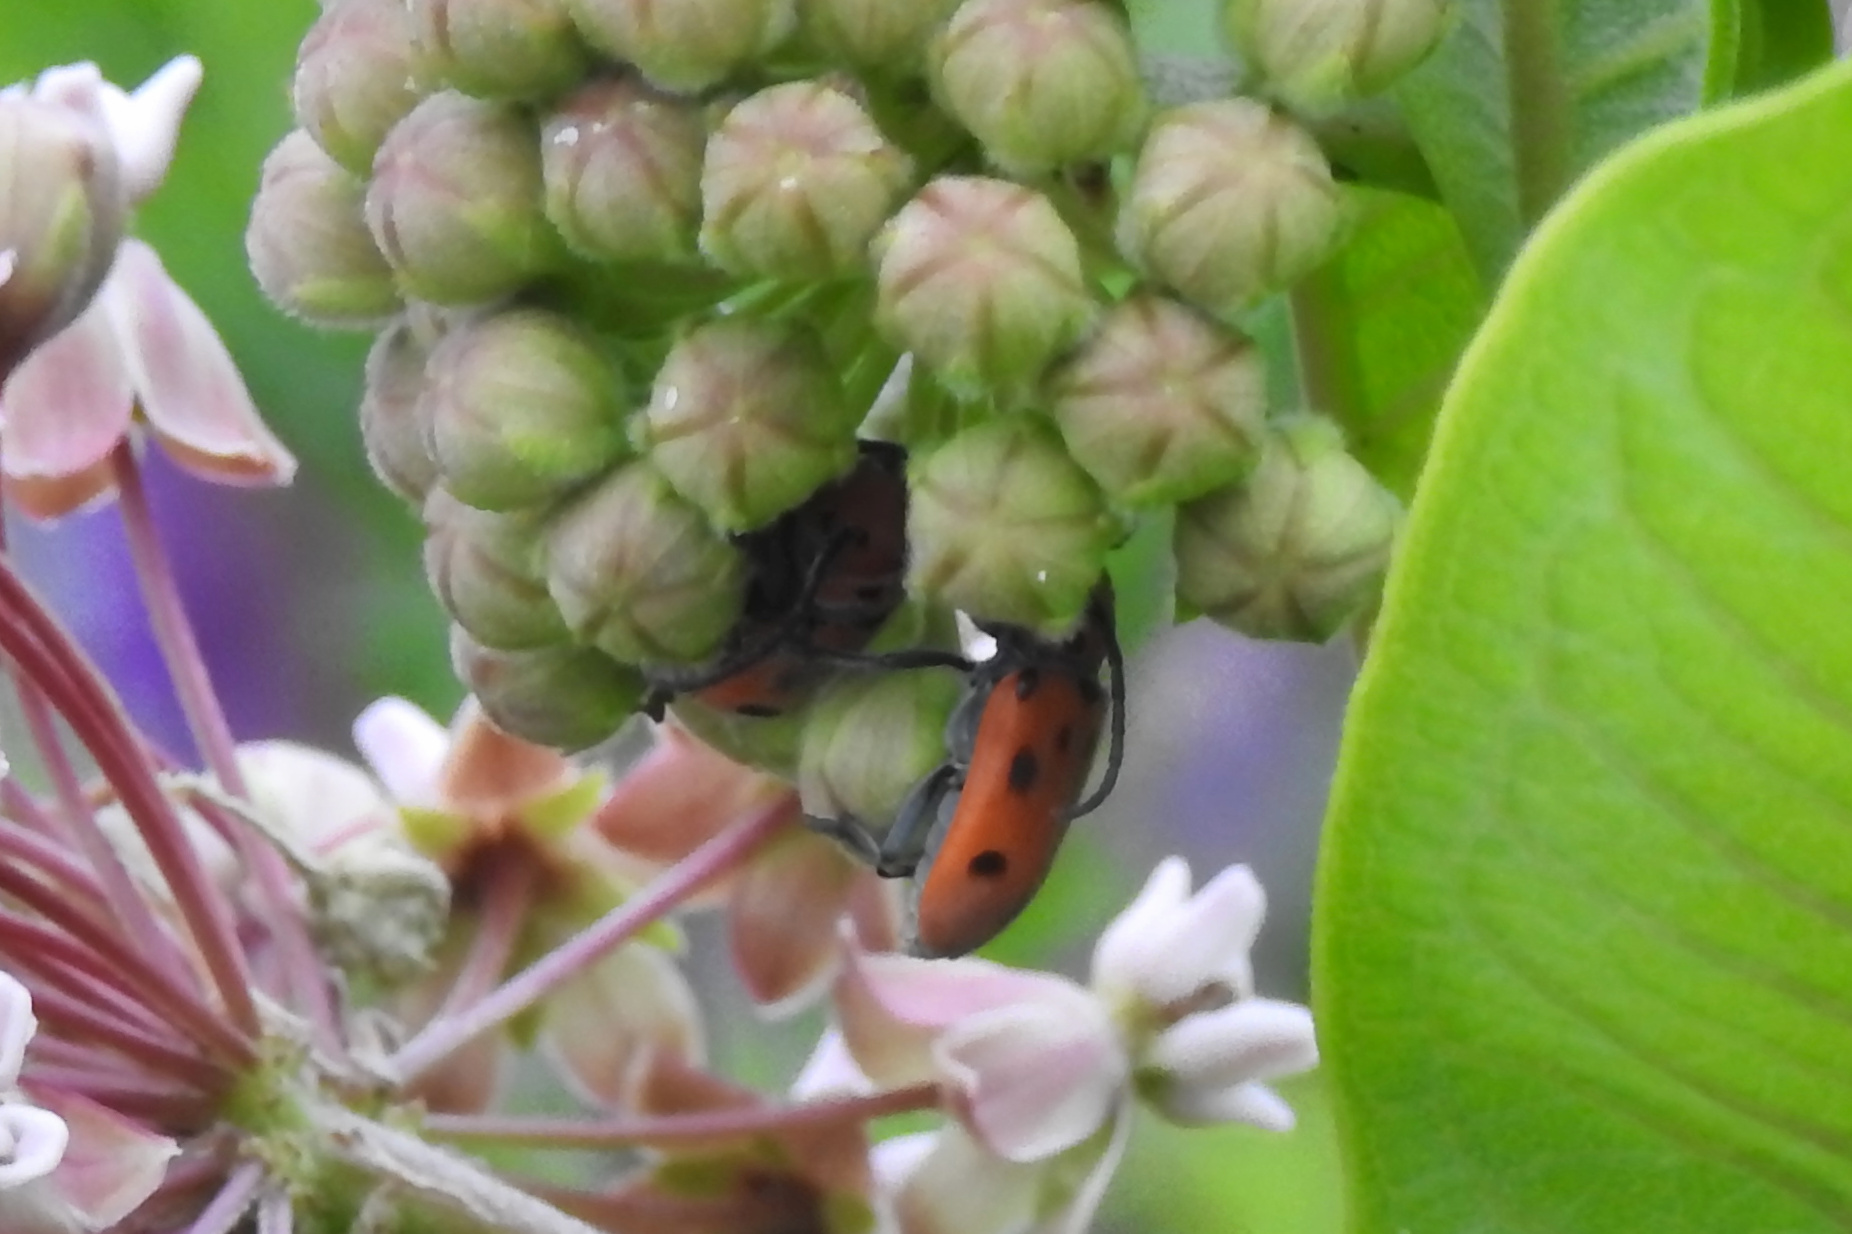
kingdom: Animalia
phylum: Arthropoda
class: Insecta
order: Coleoptera
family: Cerambycidae
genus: Tetraopes
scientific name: Tetraopes tetrophthalmus
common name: Red milkweed beetle
